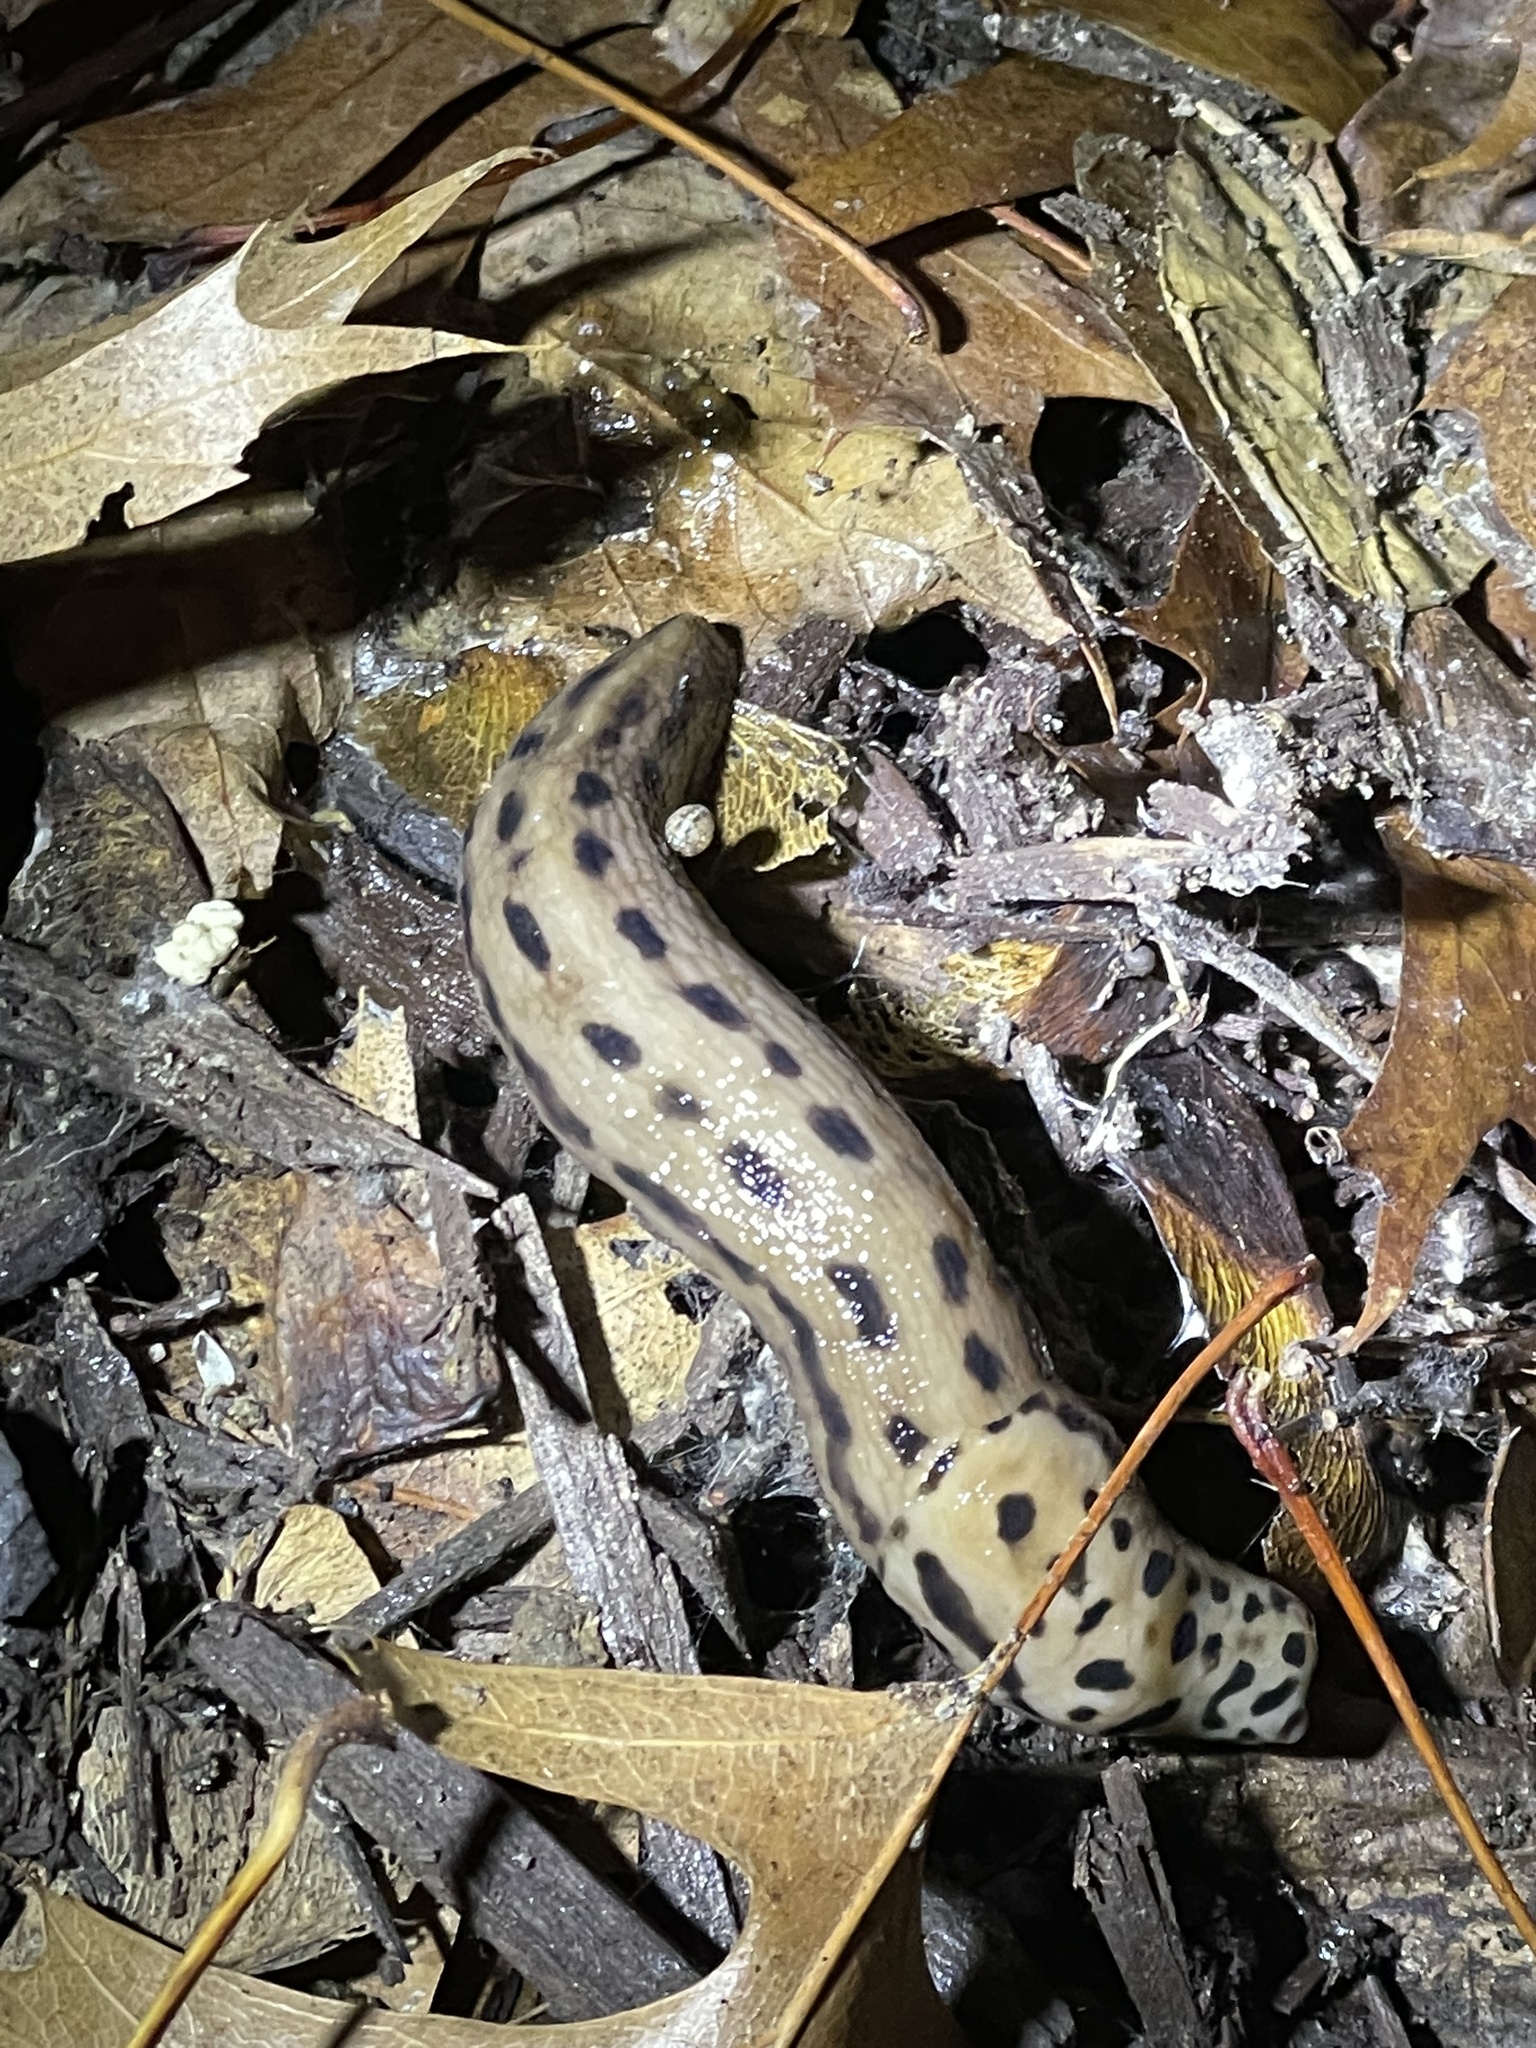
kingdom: Animalia
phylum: Mollusca
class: Gastropoda
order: Stylommatophora
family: Limacidae
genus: Limax
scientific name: Limax maximus
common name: Great grey slug
